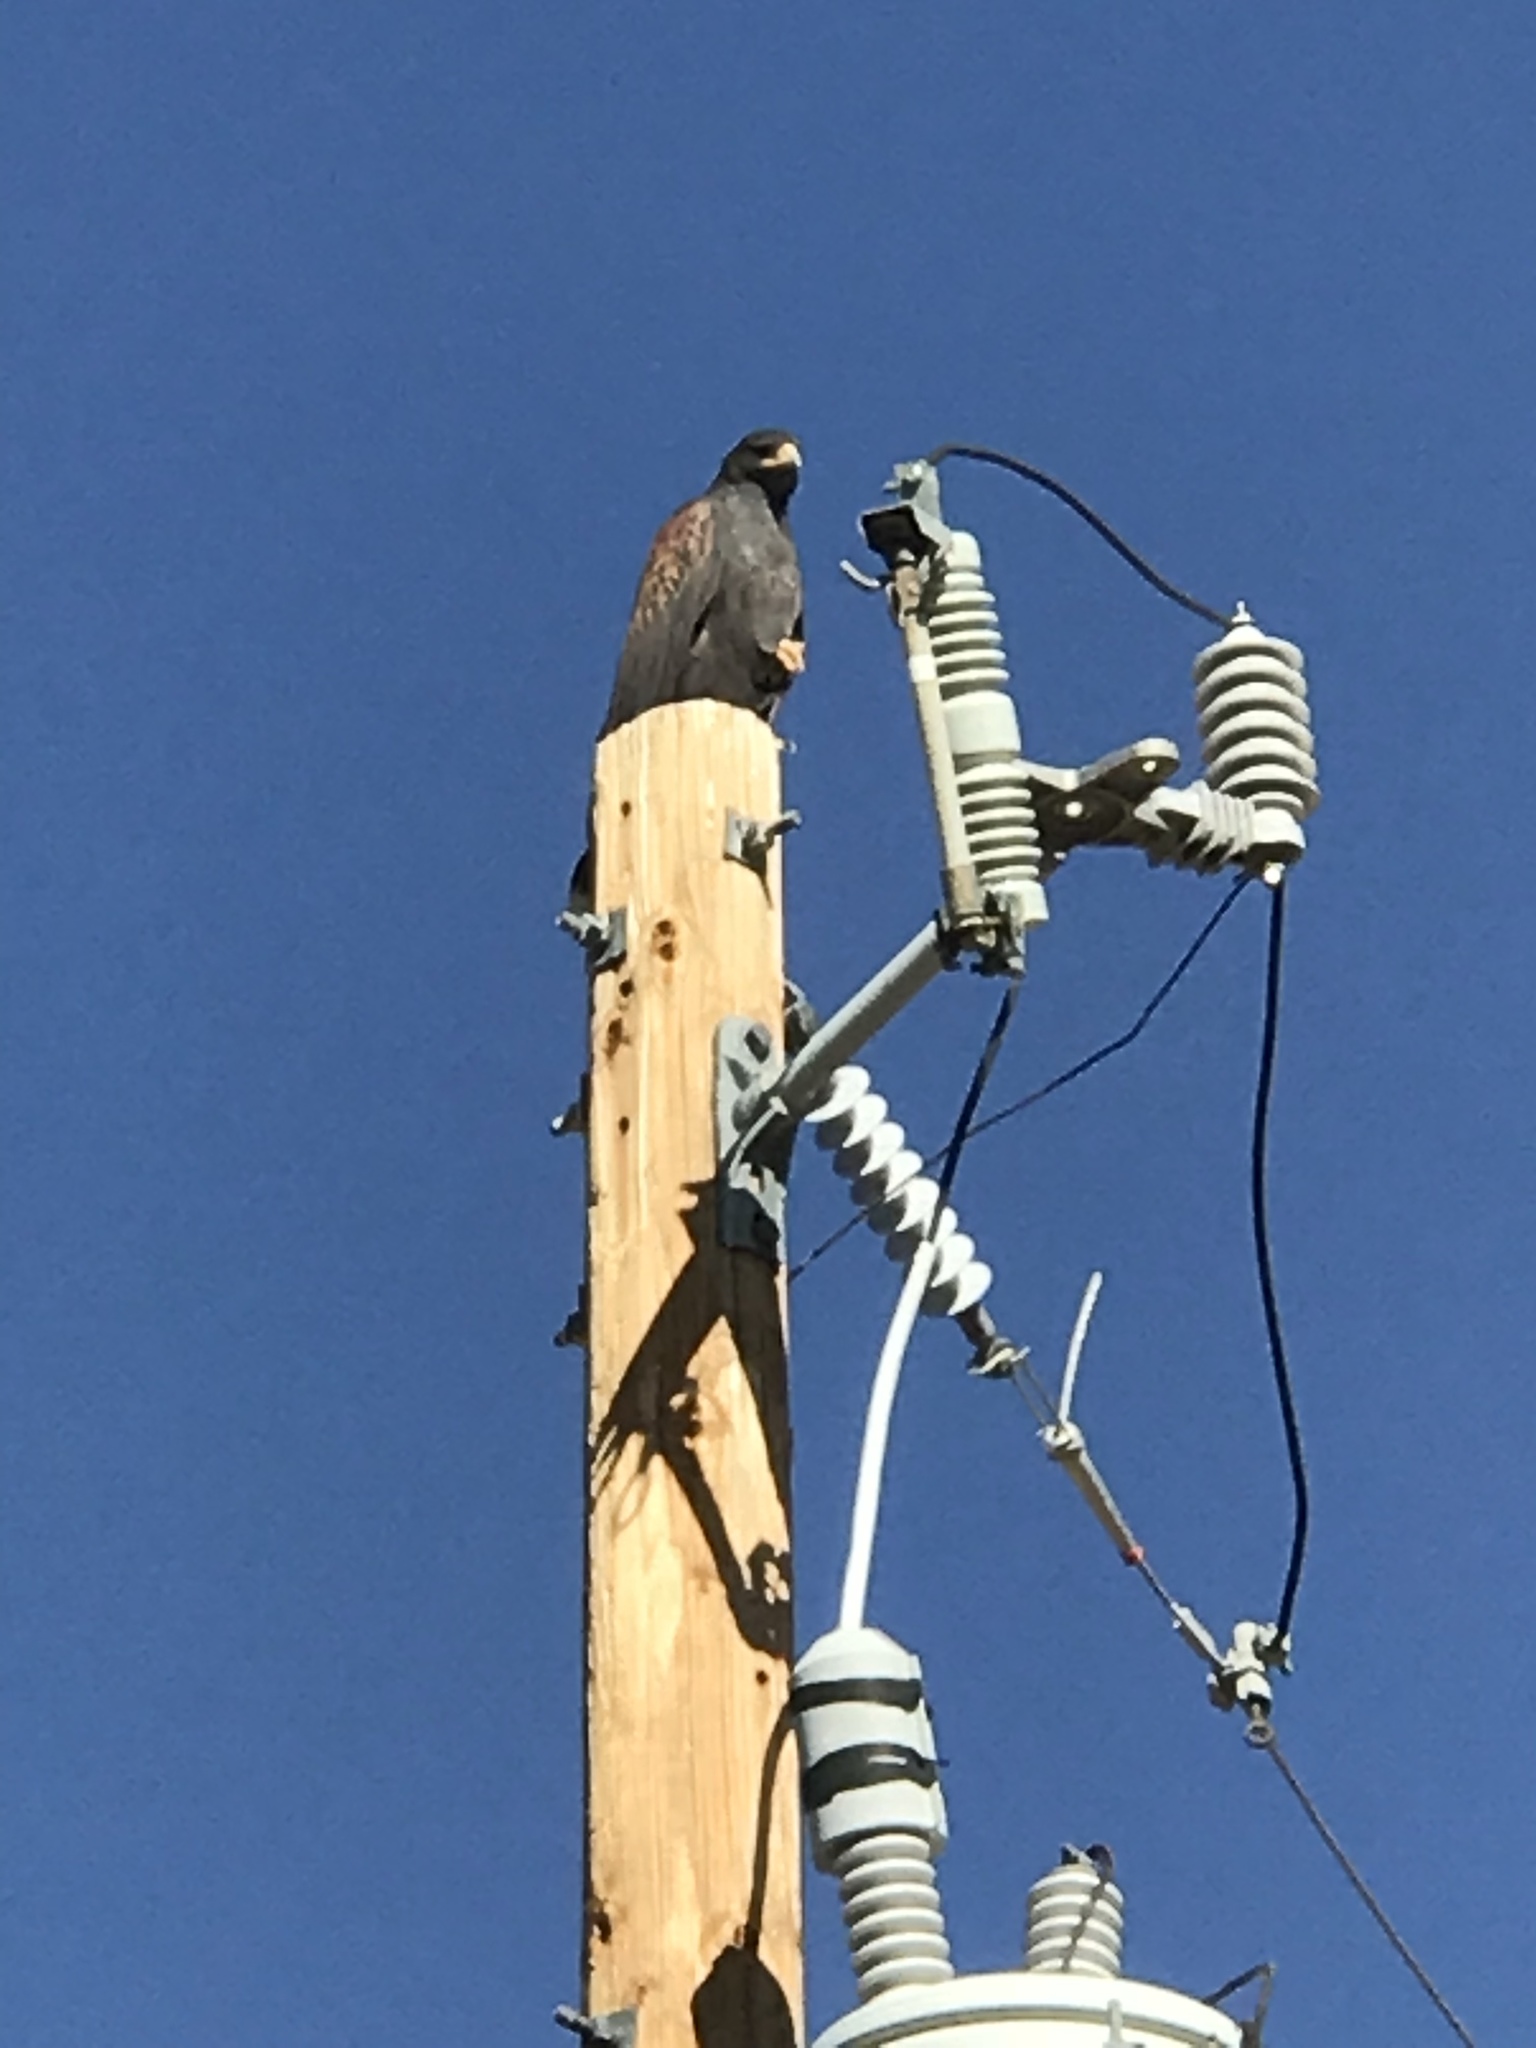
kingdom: Animalia
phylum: Chordata
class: Aves
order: Accipitriformes
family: Accipitridae
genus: Parabuteo
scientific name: Parabuteo unicinctus
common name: Harris's hawk
